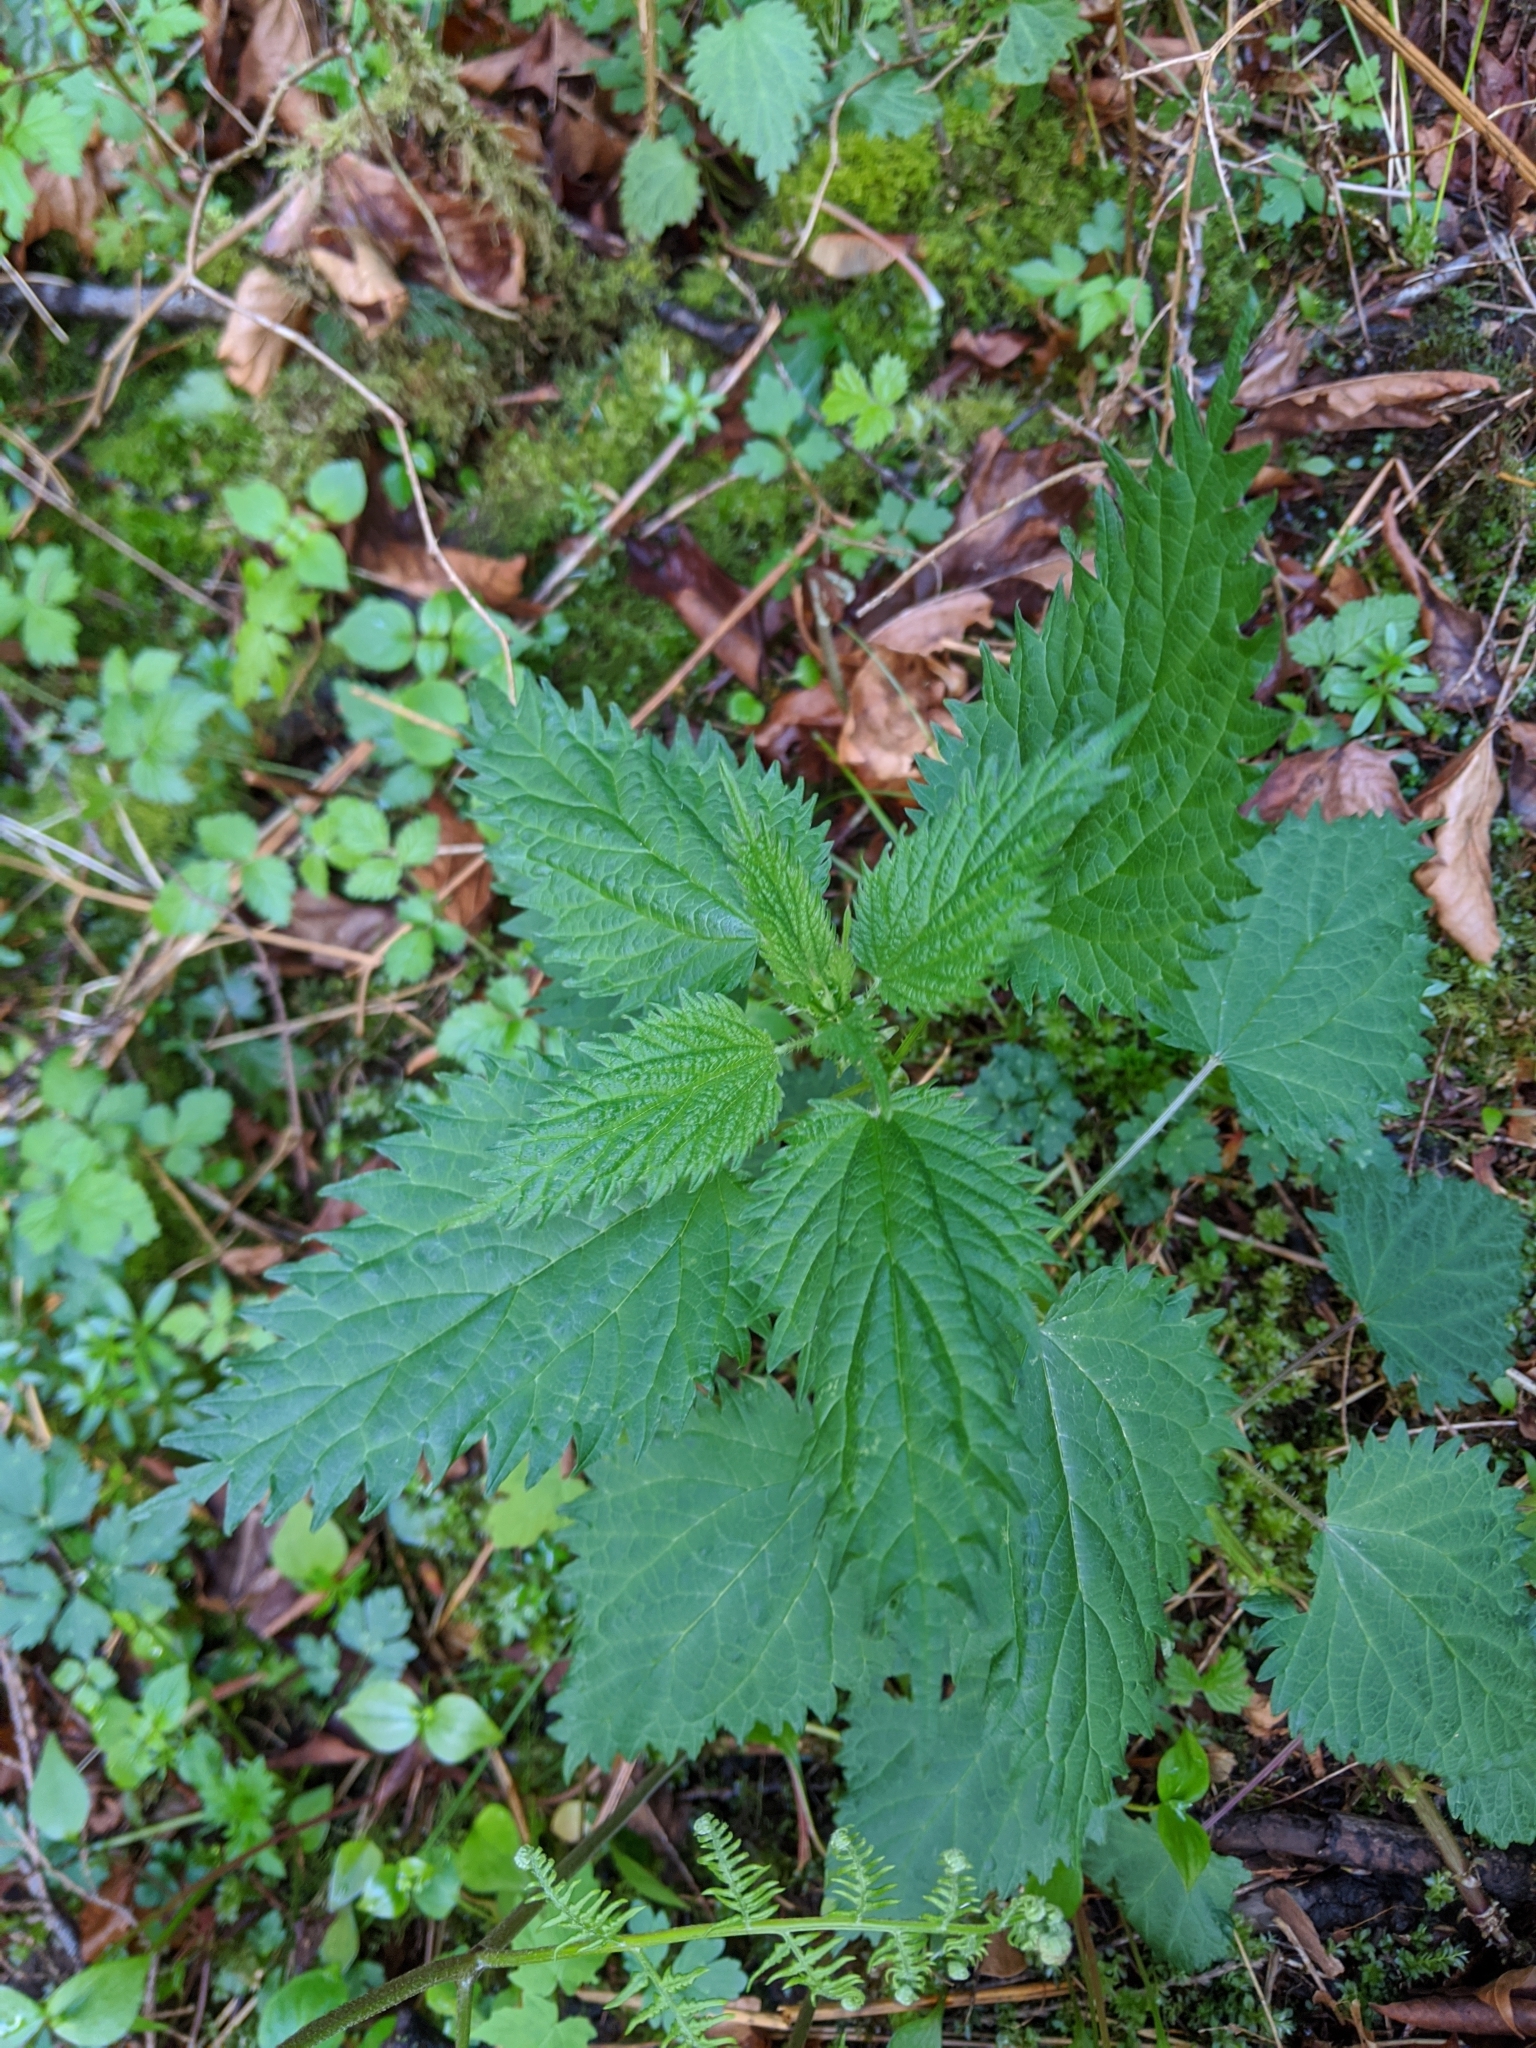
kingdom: Plantae
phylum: Tracheophyta
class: Magnoliopsida
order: Rosales
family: Urticaceae
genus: Urtica
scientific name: Urtica dioica
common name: Common nettle
